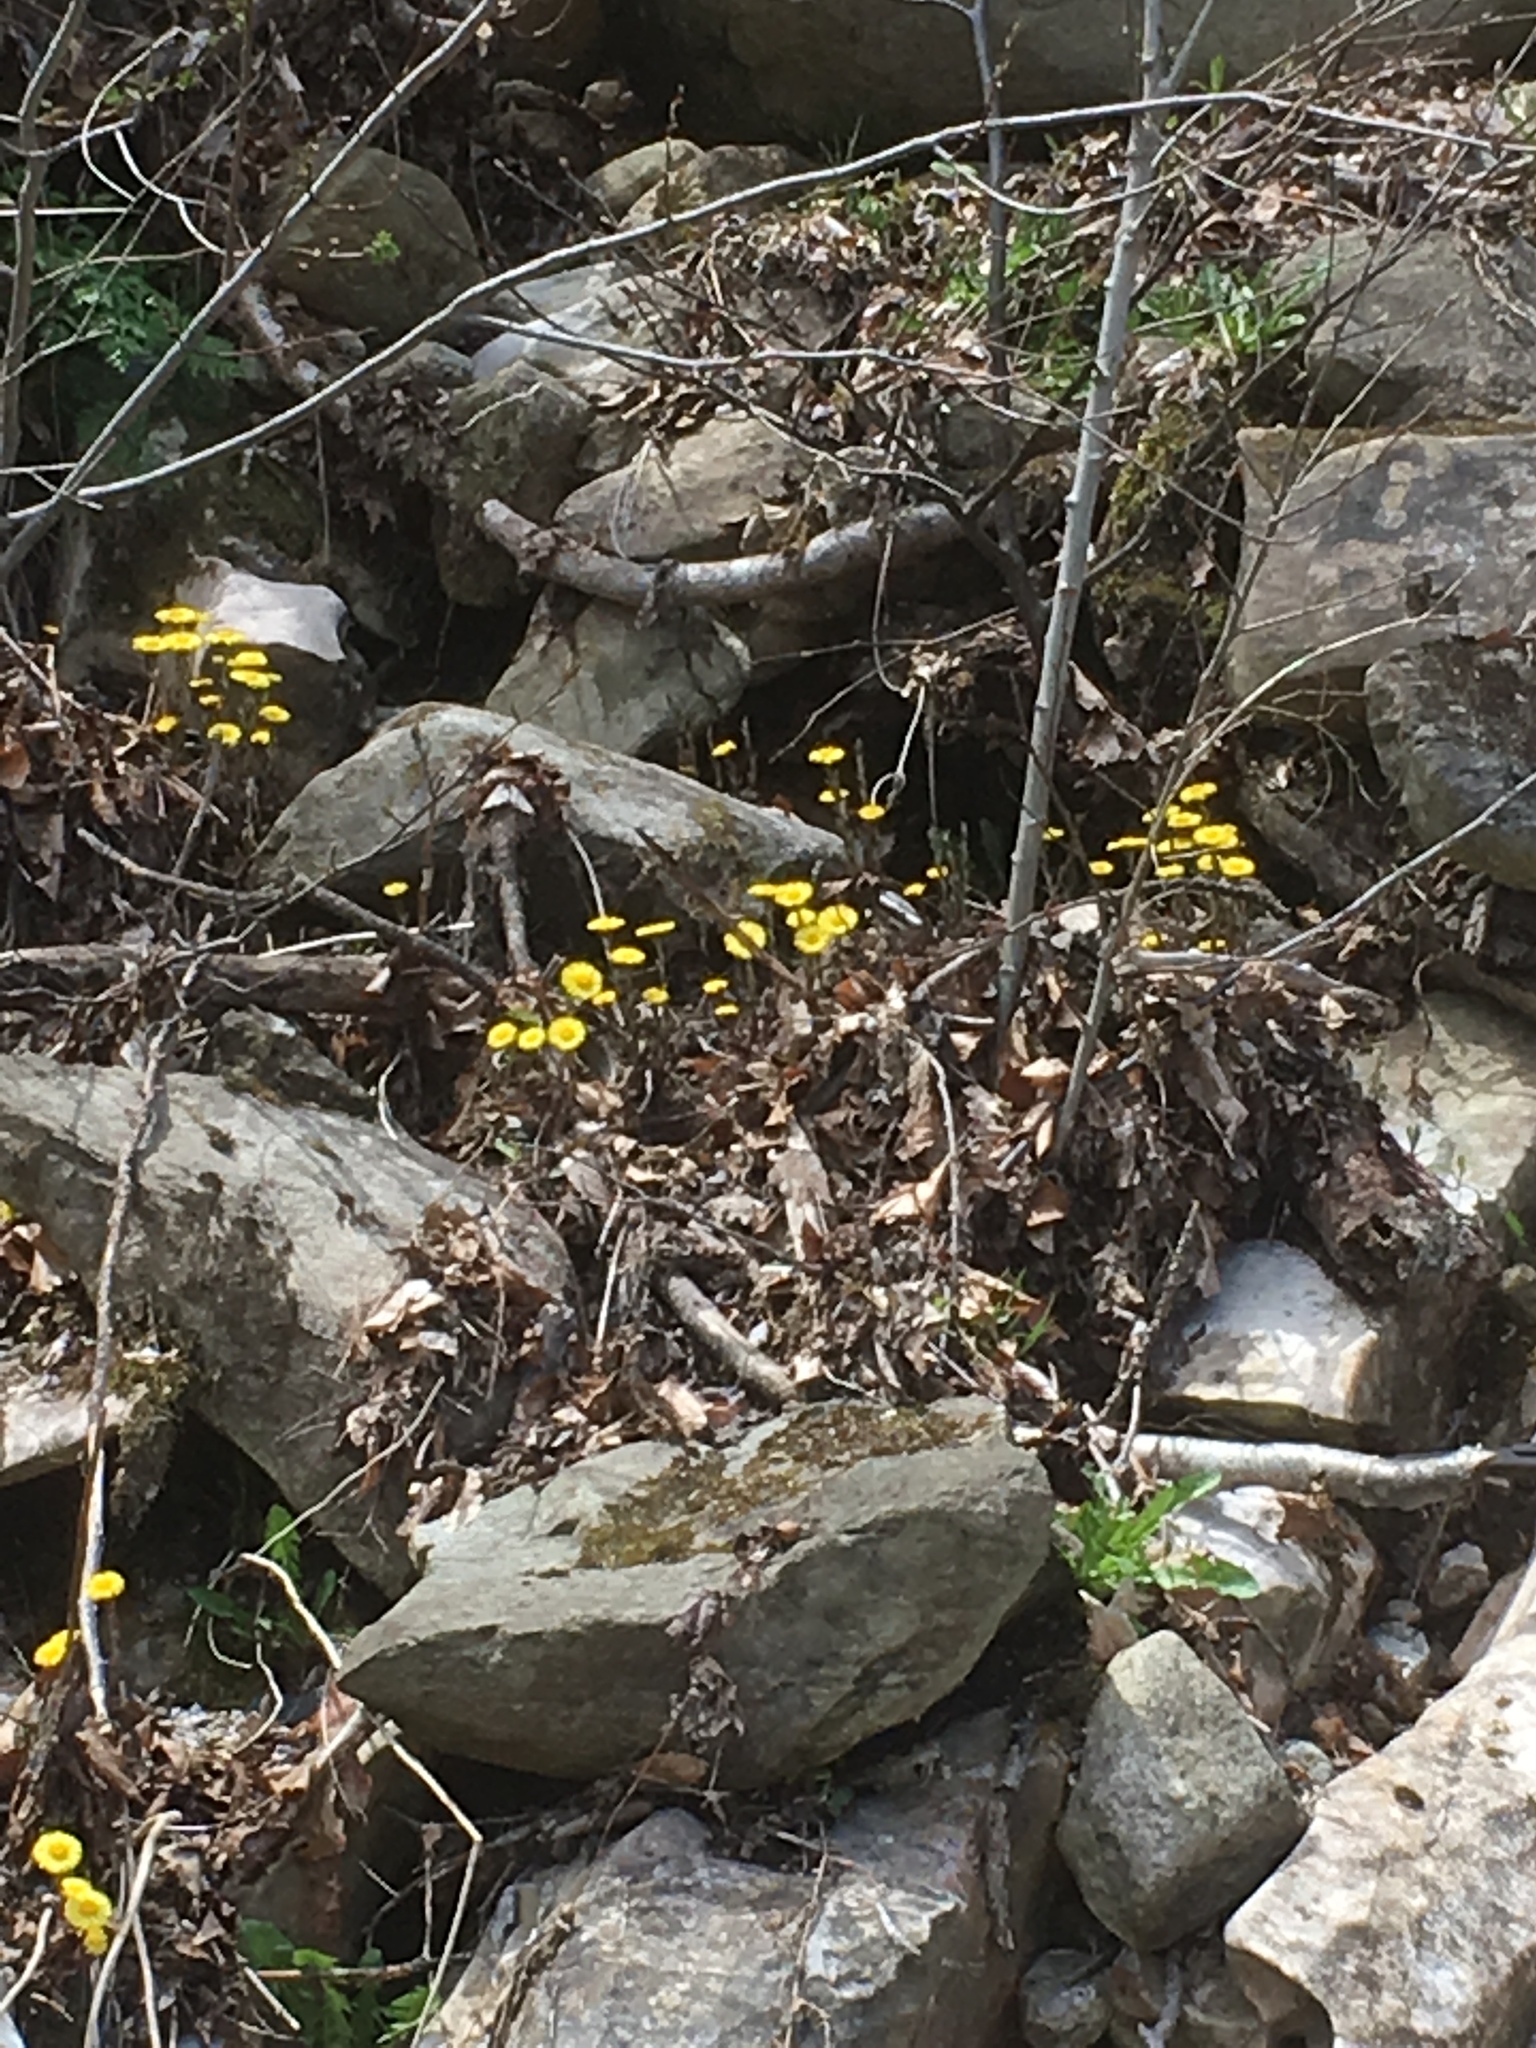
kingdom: Plantae
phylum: Tracheophyta
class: Magnoliopsida
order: Asterales
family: Asteraceae
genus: Tussilago
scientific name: Tussilago farfara
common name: Coltsfoot
